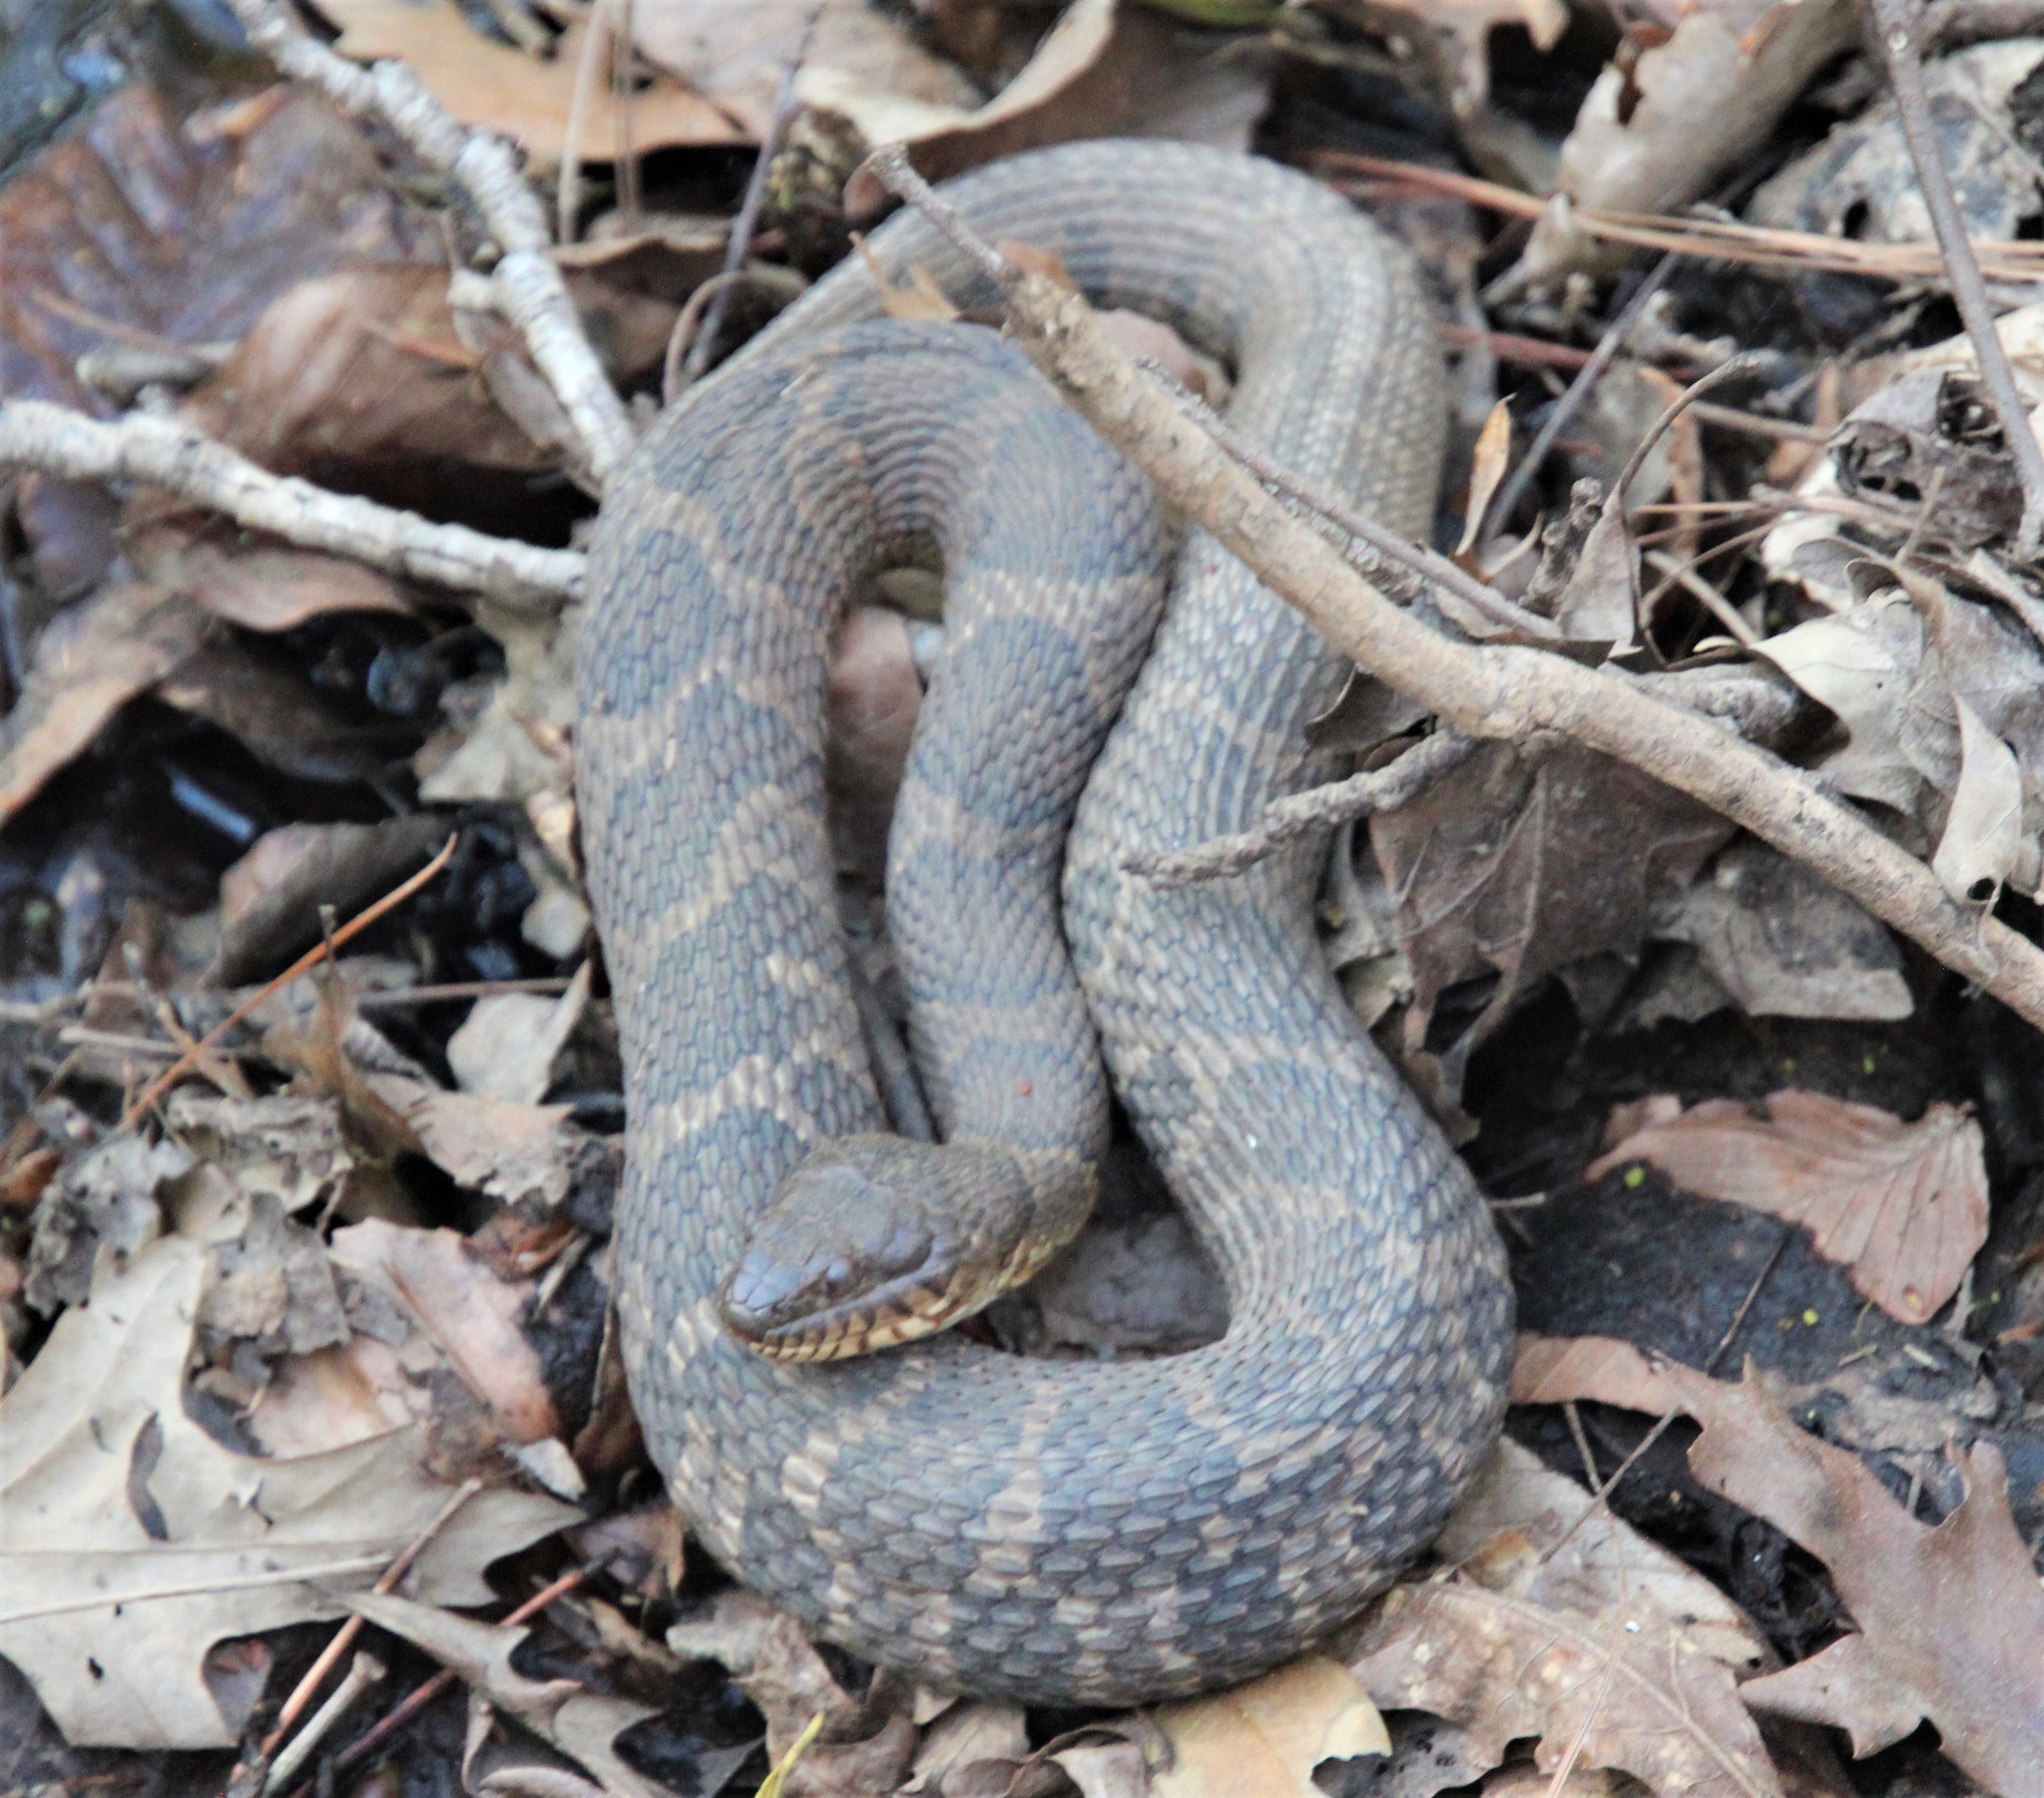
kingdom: Animalia
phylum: Chordata
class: Squamata
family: Colubridae
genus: Nerodia
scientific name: Nerodia sipedon
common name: Northern water snake
